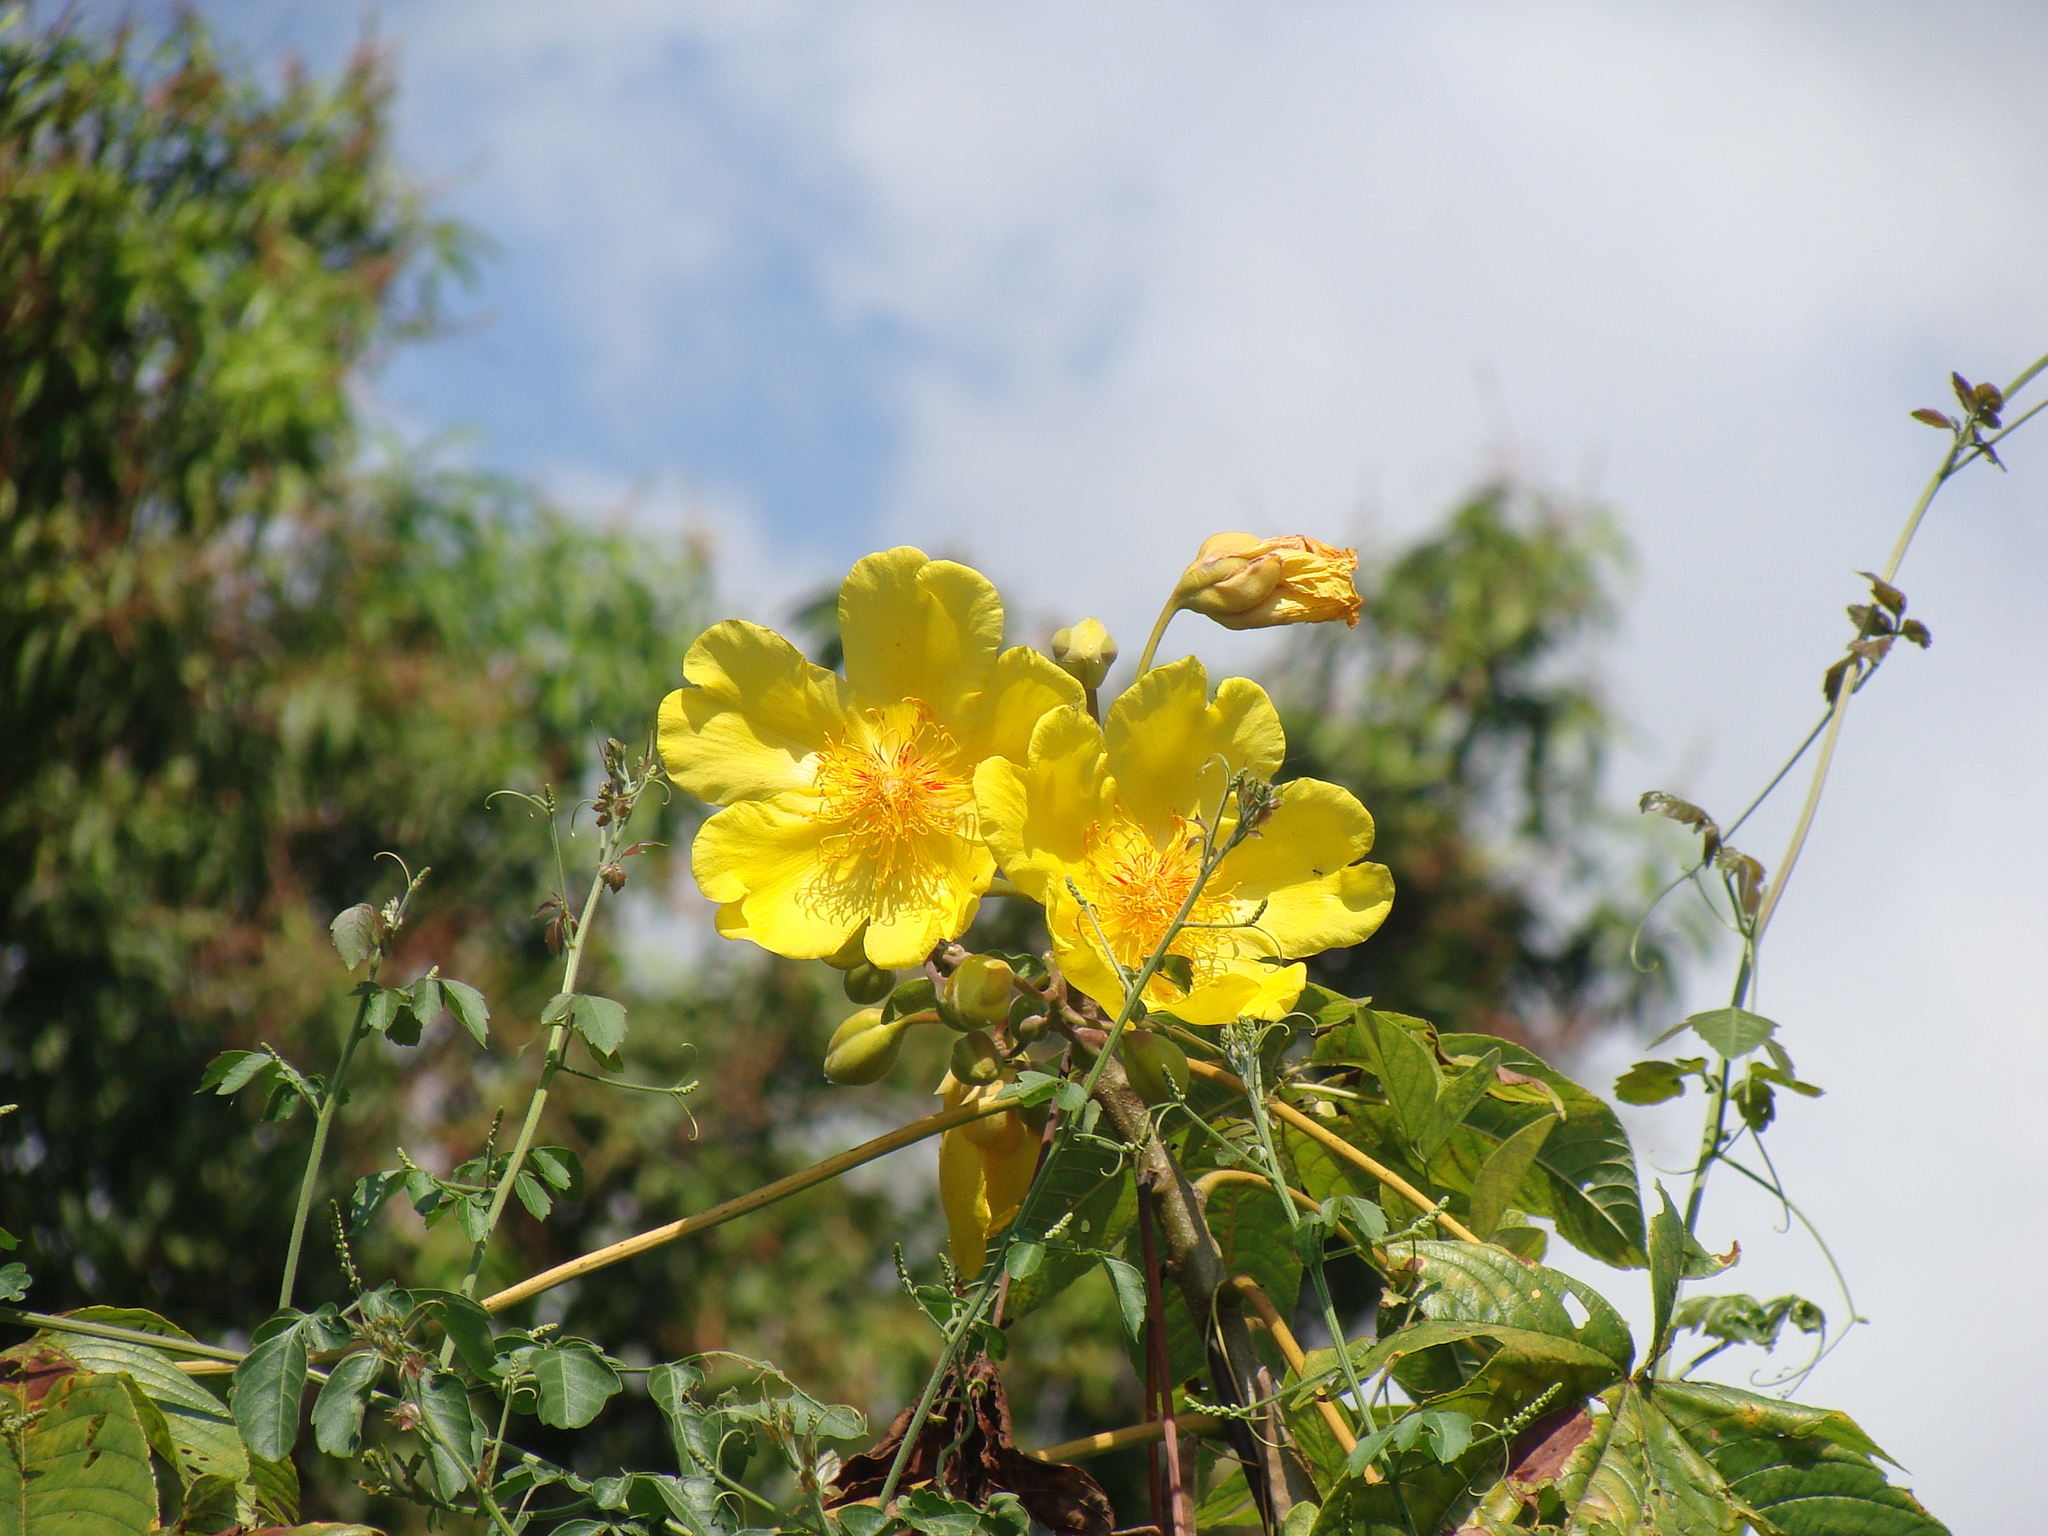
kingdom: Plantae
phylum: Tracheophyta
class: Magnoliopsida
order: Malvales
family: Cochlospermaceae
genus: Cochlospermum
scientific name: Cochlospermum vitifolium
